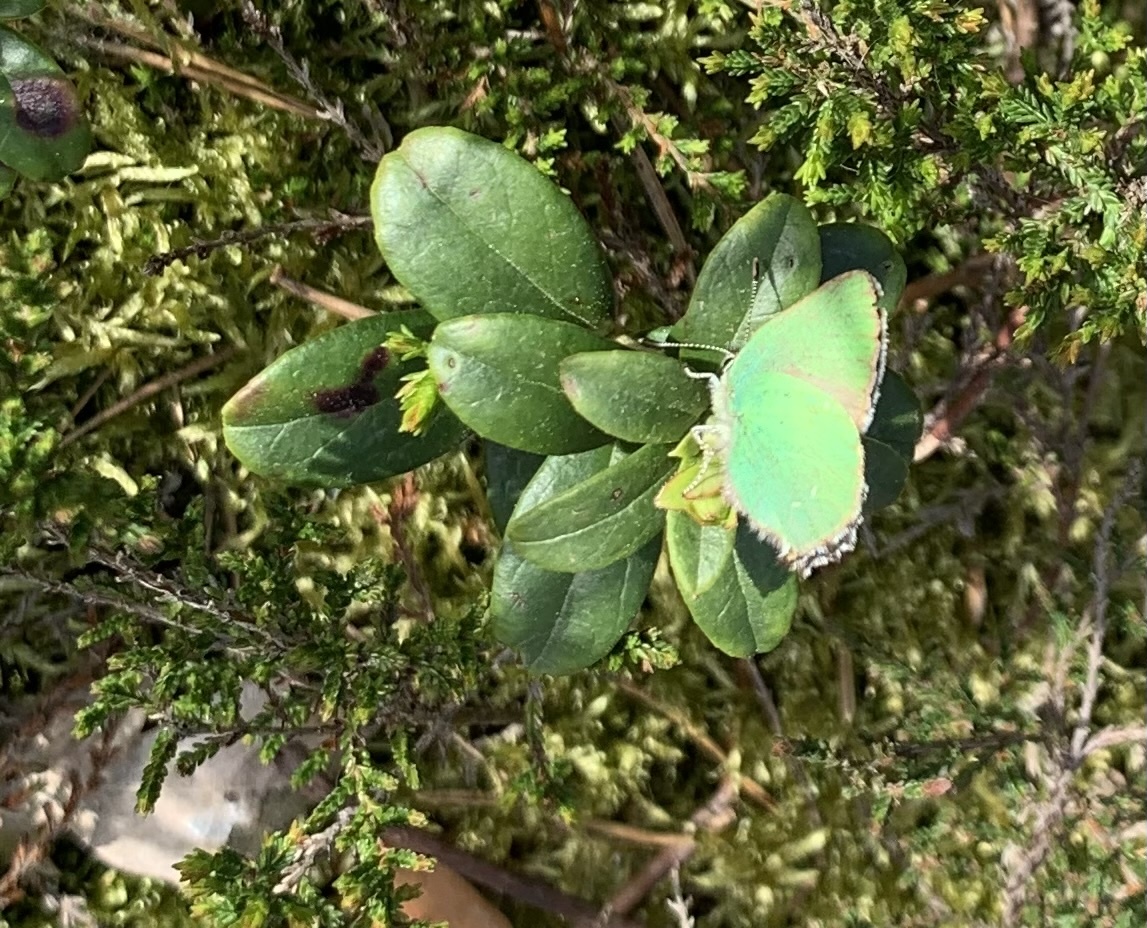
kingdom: Animalia
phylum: Arthropoda
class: Insecta
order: Lepidoptera
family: Lycaenidae
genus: Callophrys
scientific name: Callophrys rubi
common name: Green hairstreak
